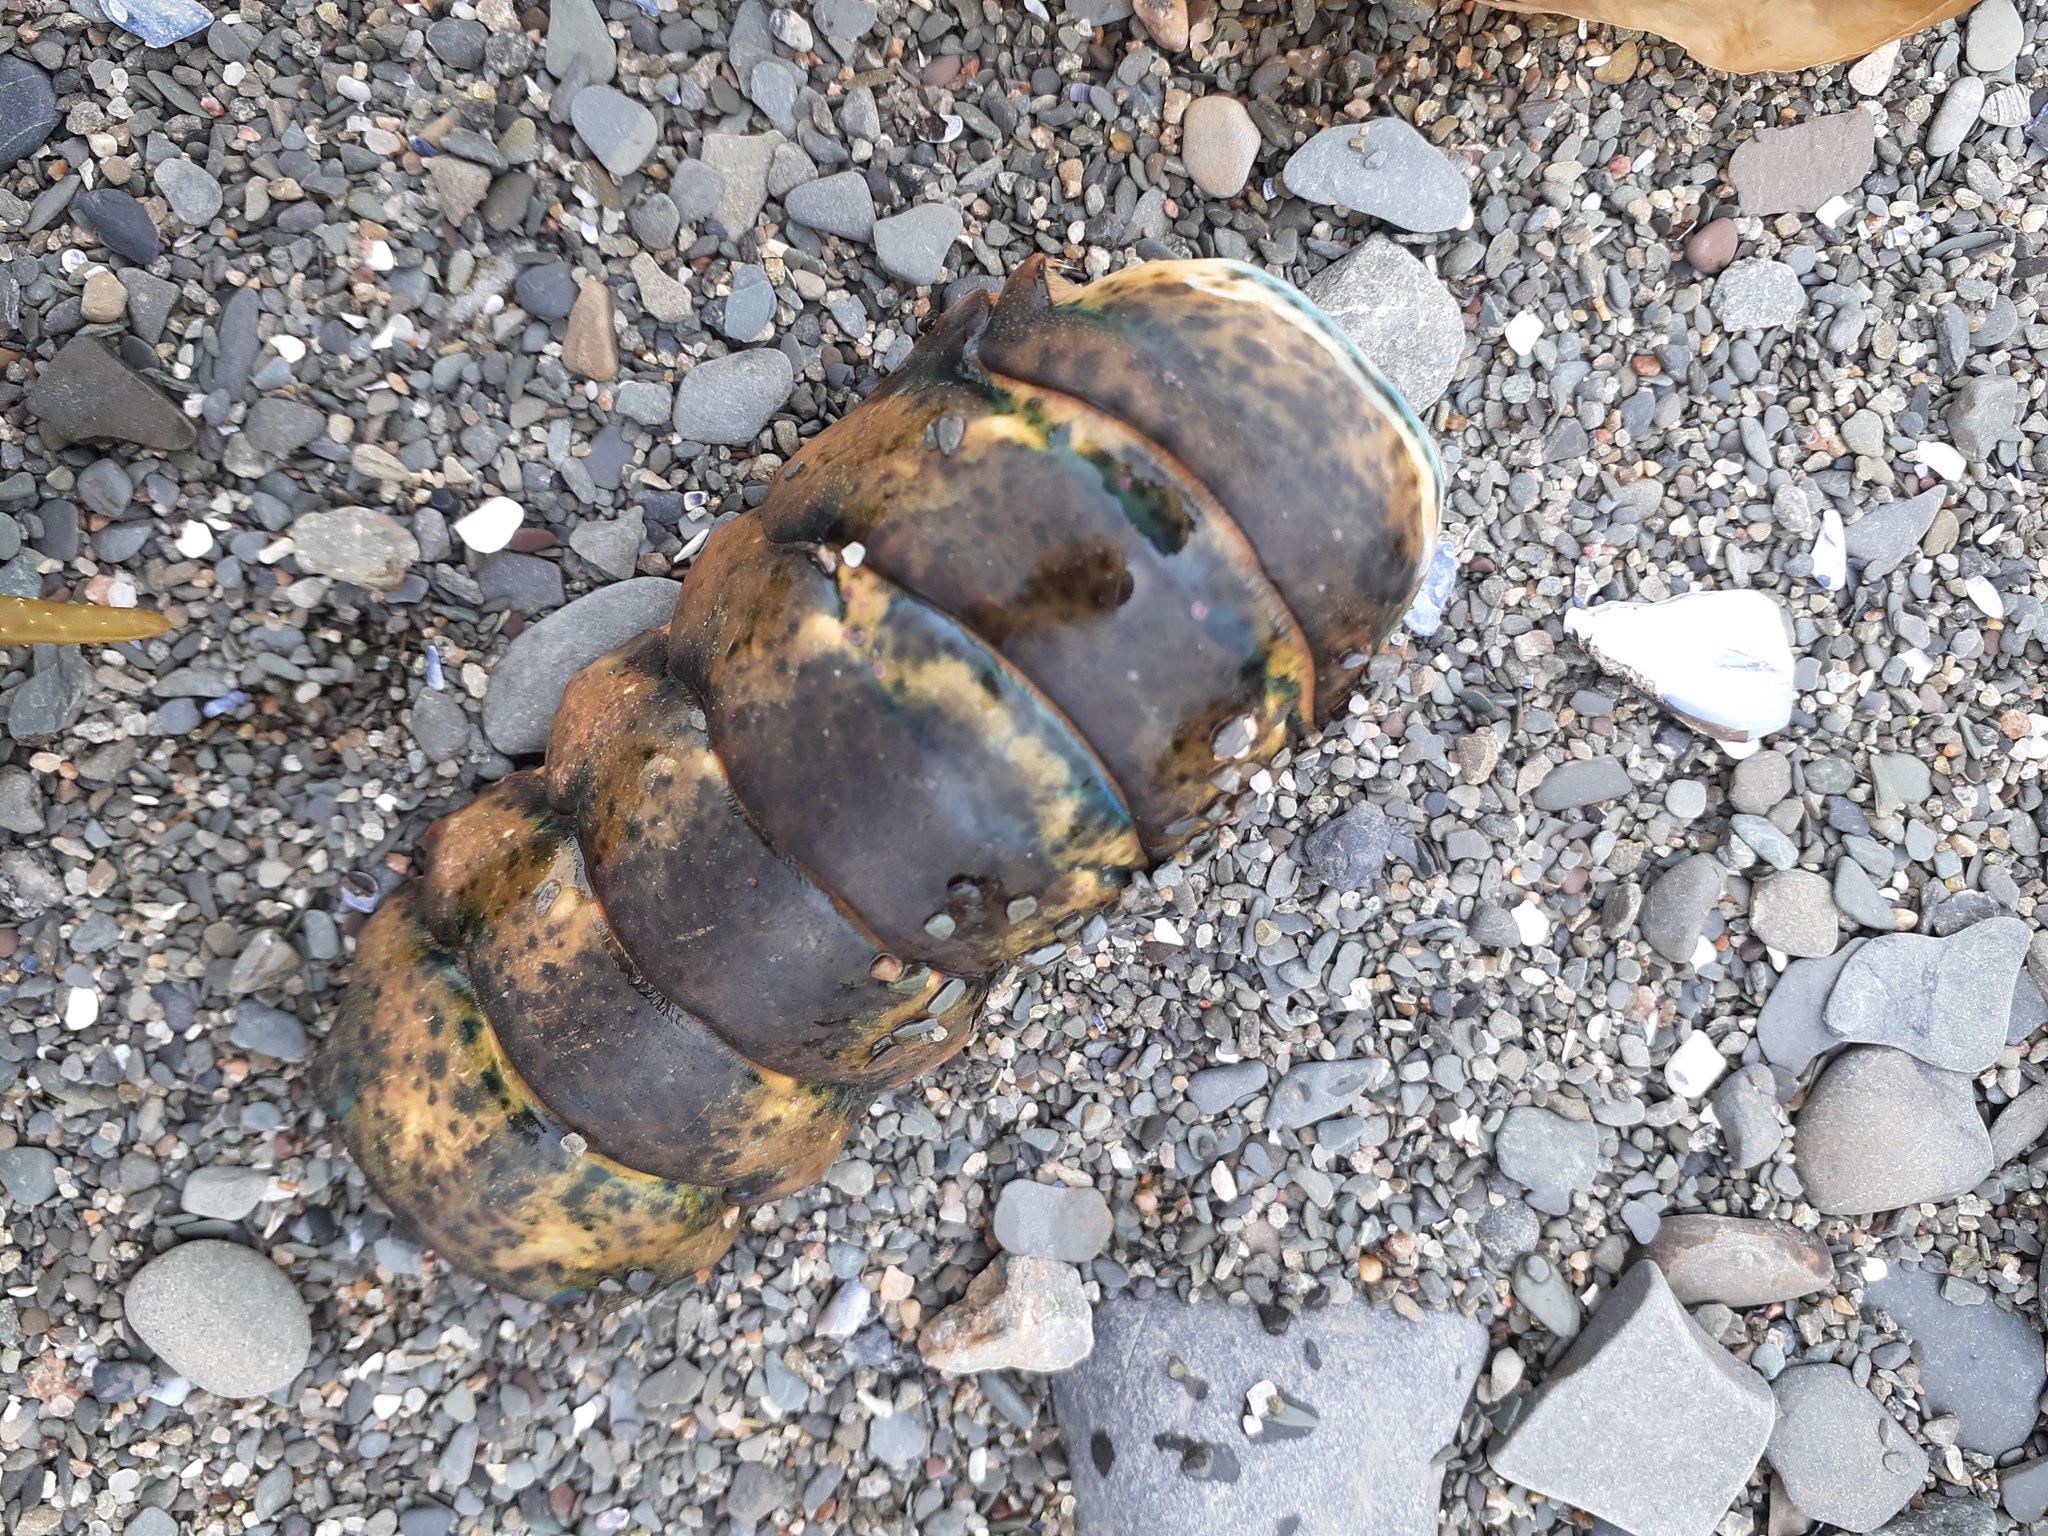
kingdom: Animalia
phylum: Arthropoda
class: Malacostraca
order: Decapoda
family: Nephropidae
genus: Homarus
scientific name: Homarus americanus
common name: American lobster
